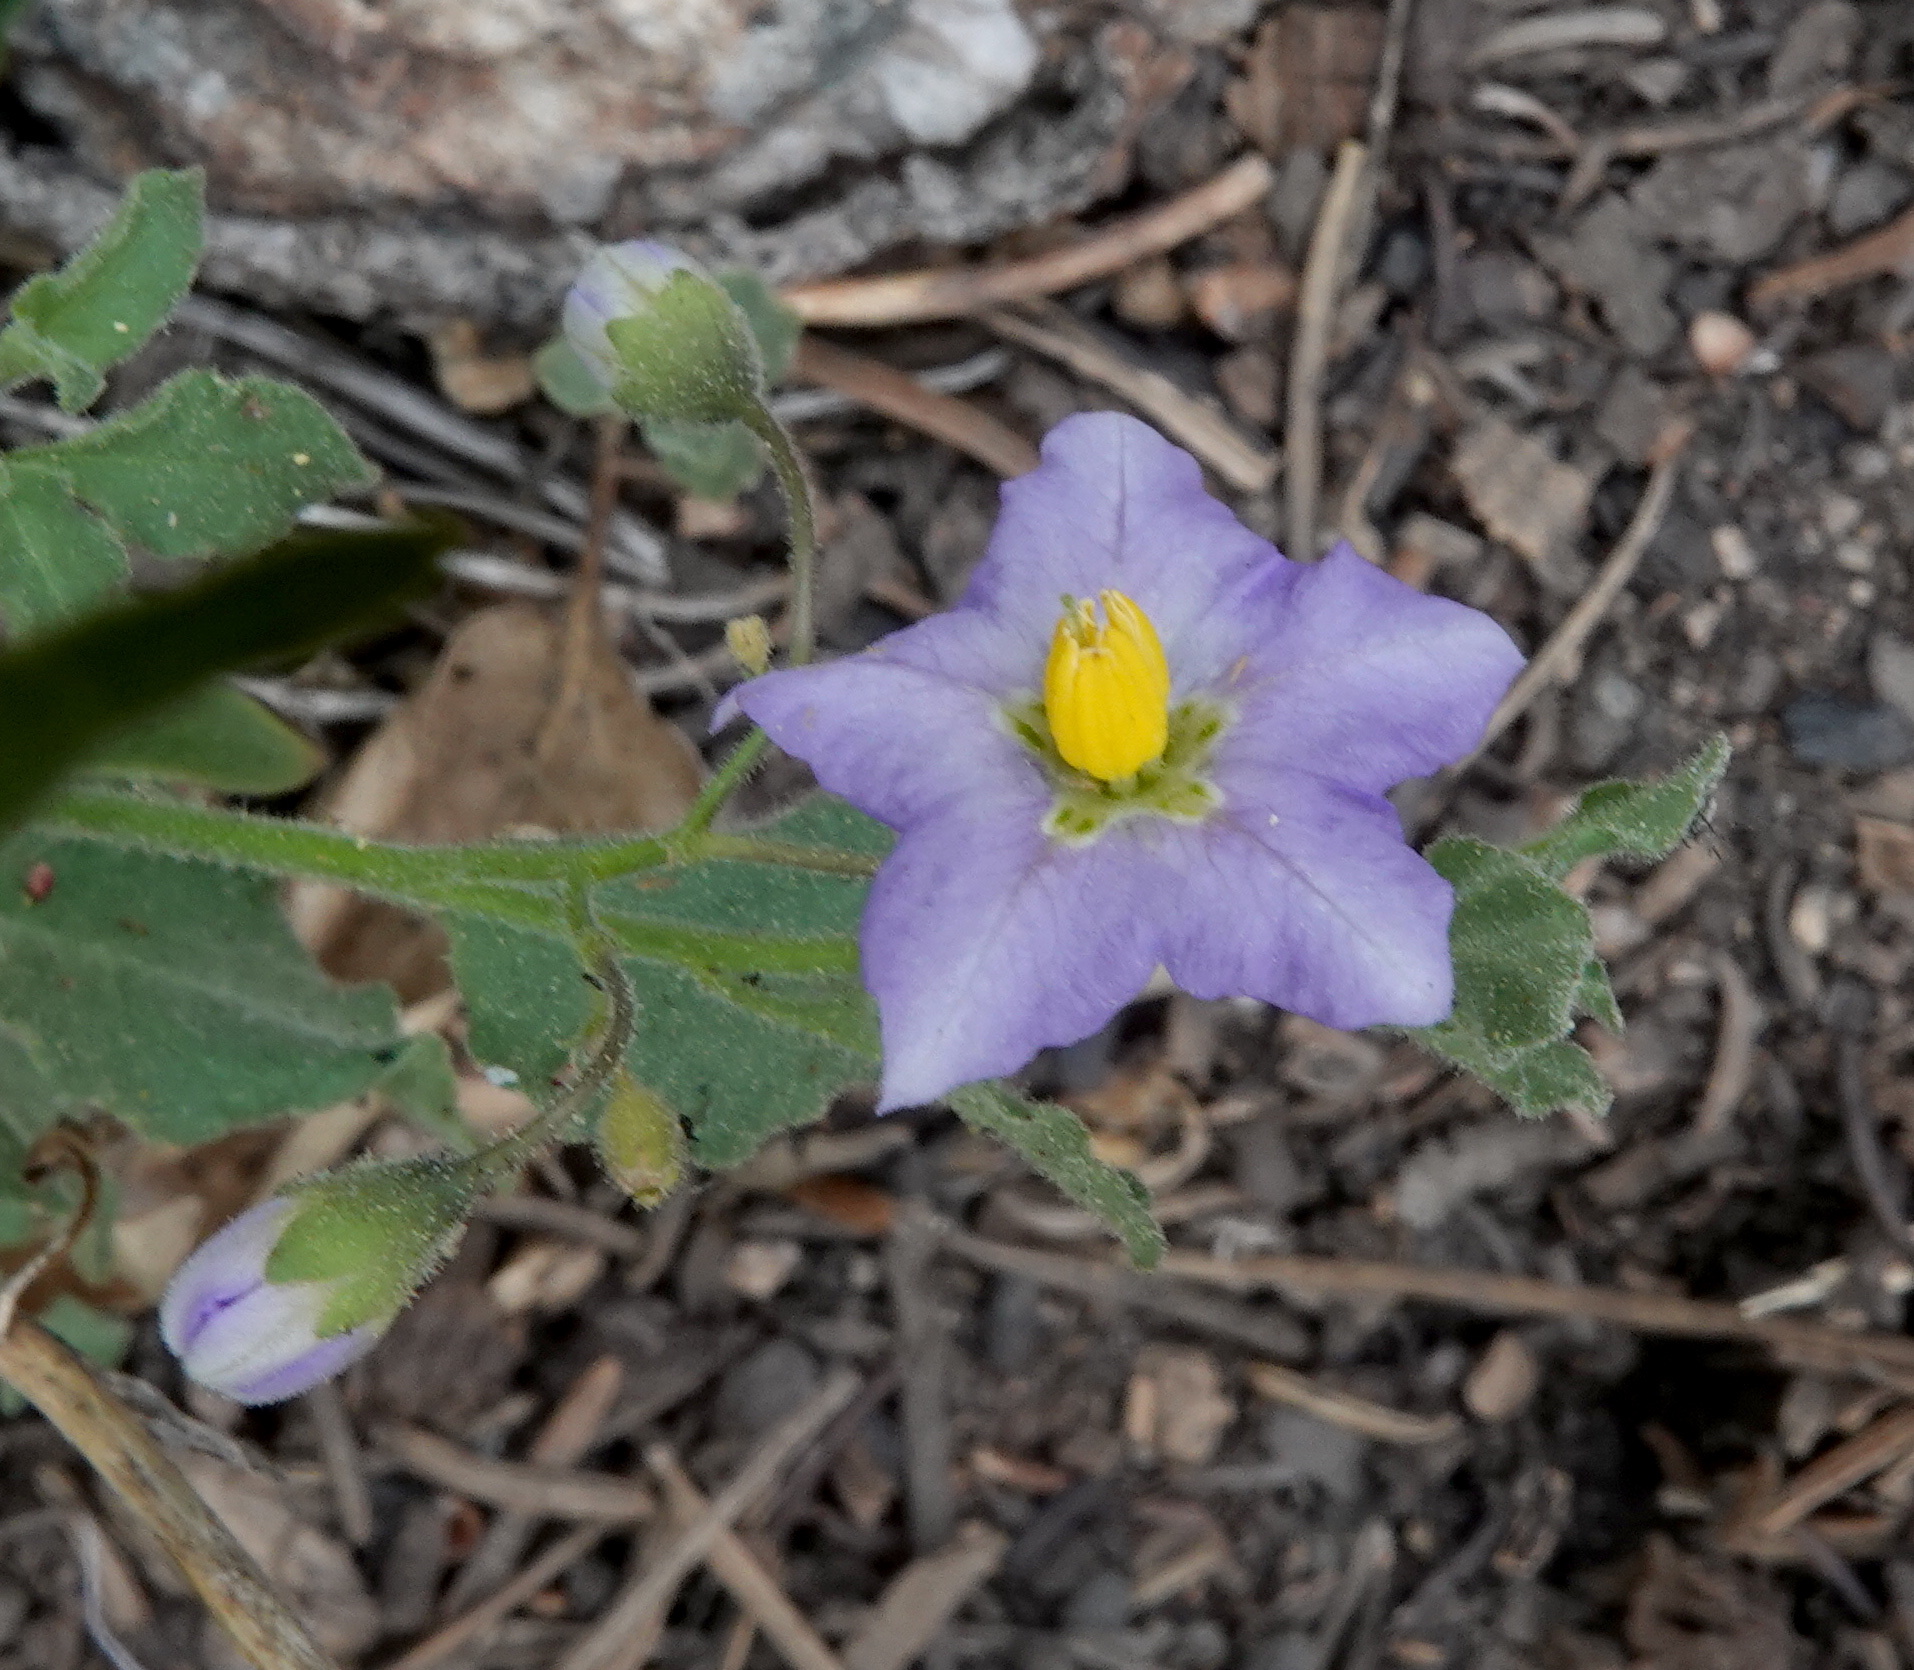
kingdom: Plantae
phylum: Tracheophyta
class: Magnoliopsida
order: Solanales
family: Solanaceae
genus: Solanum
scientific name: Solanum umbelliferum
